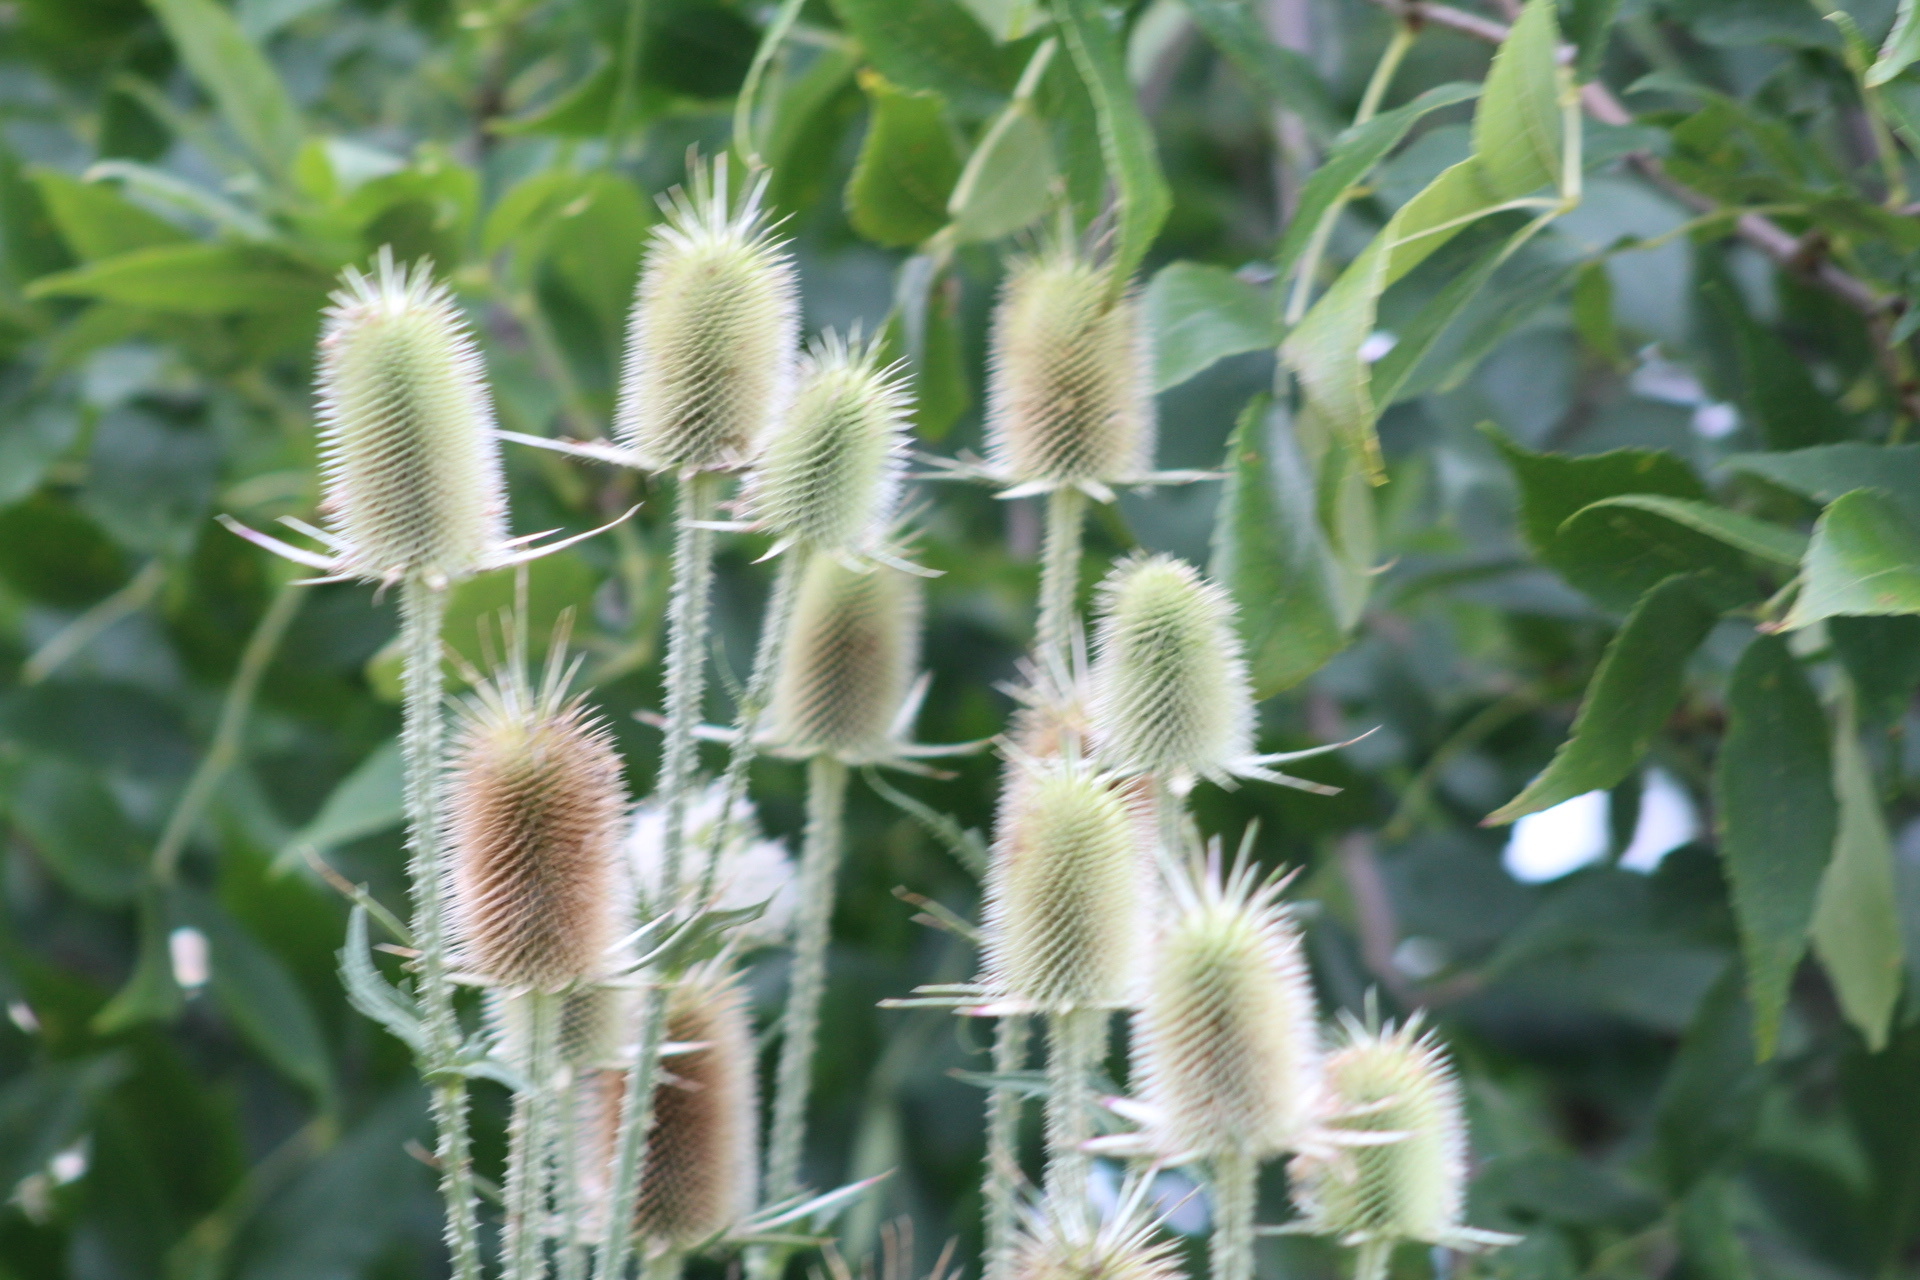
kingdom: Plantae
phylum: Tracheophyta
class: Magnoliopsida
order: Dipsacales
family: Caprifoliaceae
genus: Dipsacus
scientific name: Dipsacus laciniatus
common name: Cut-leaved teasel
